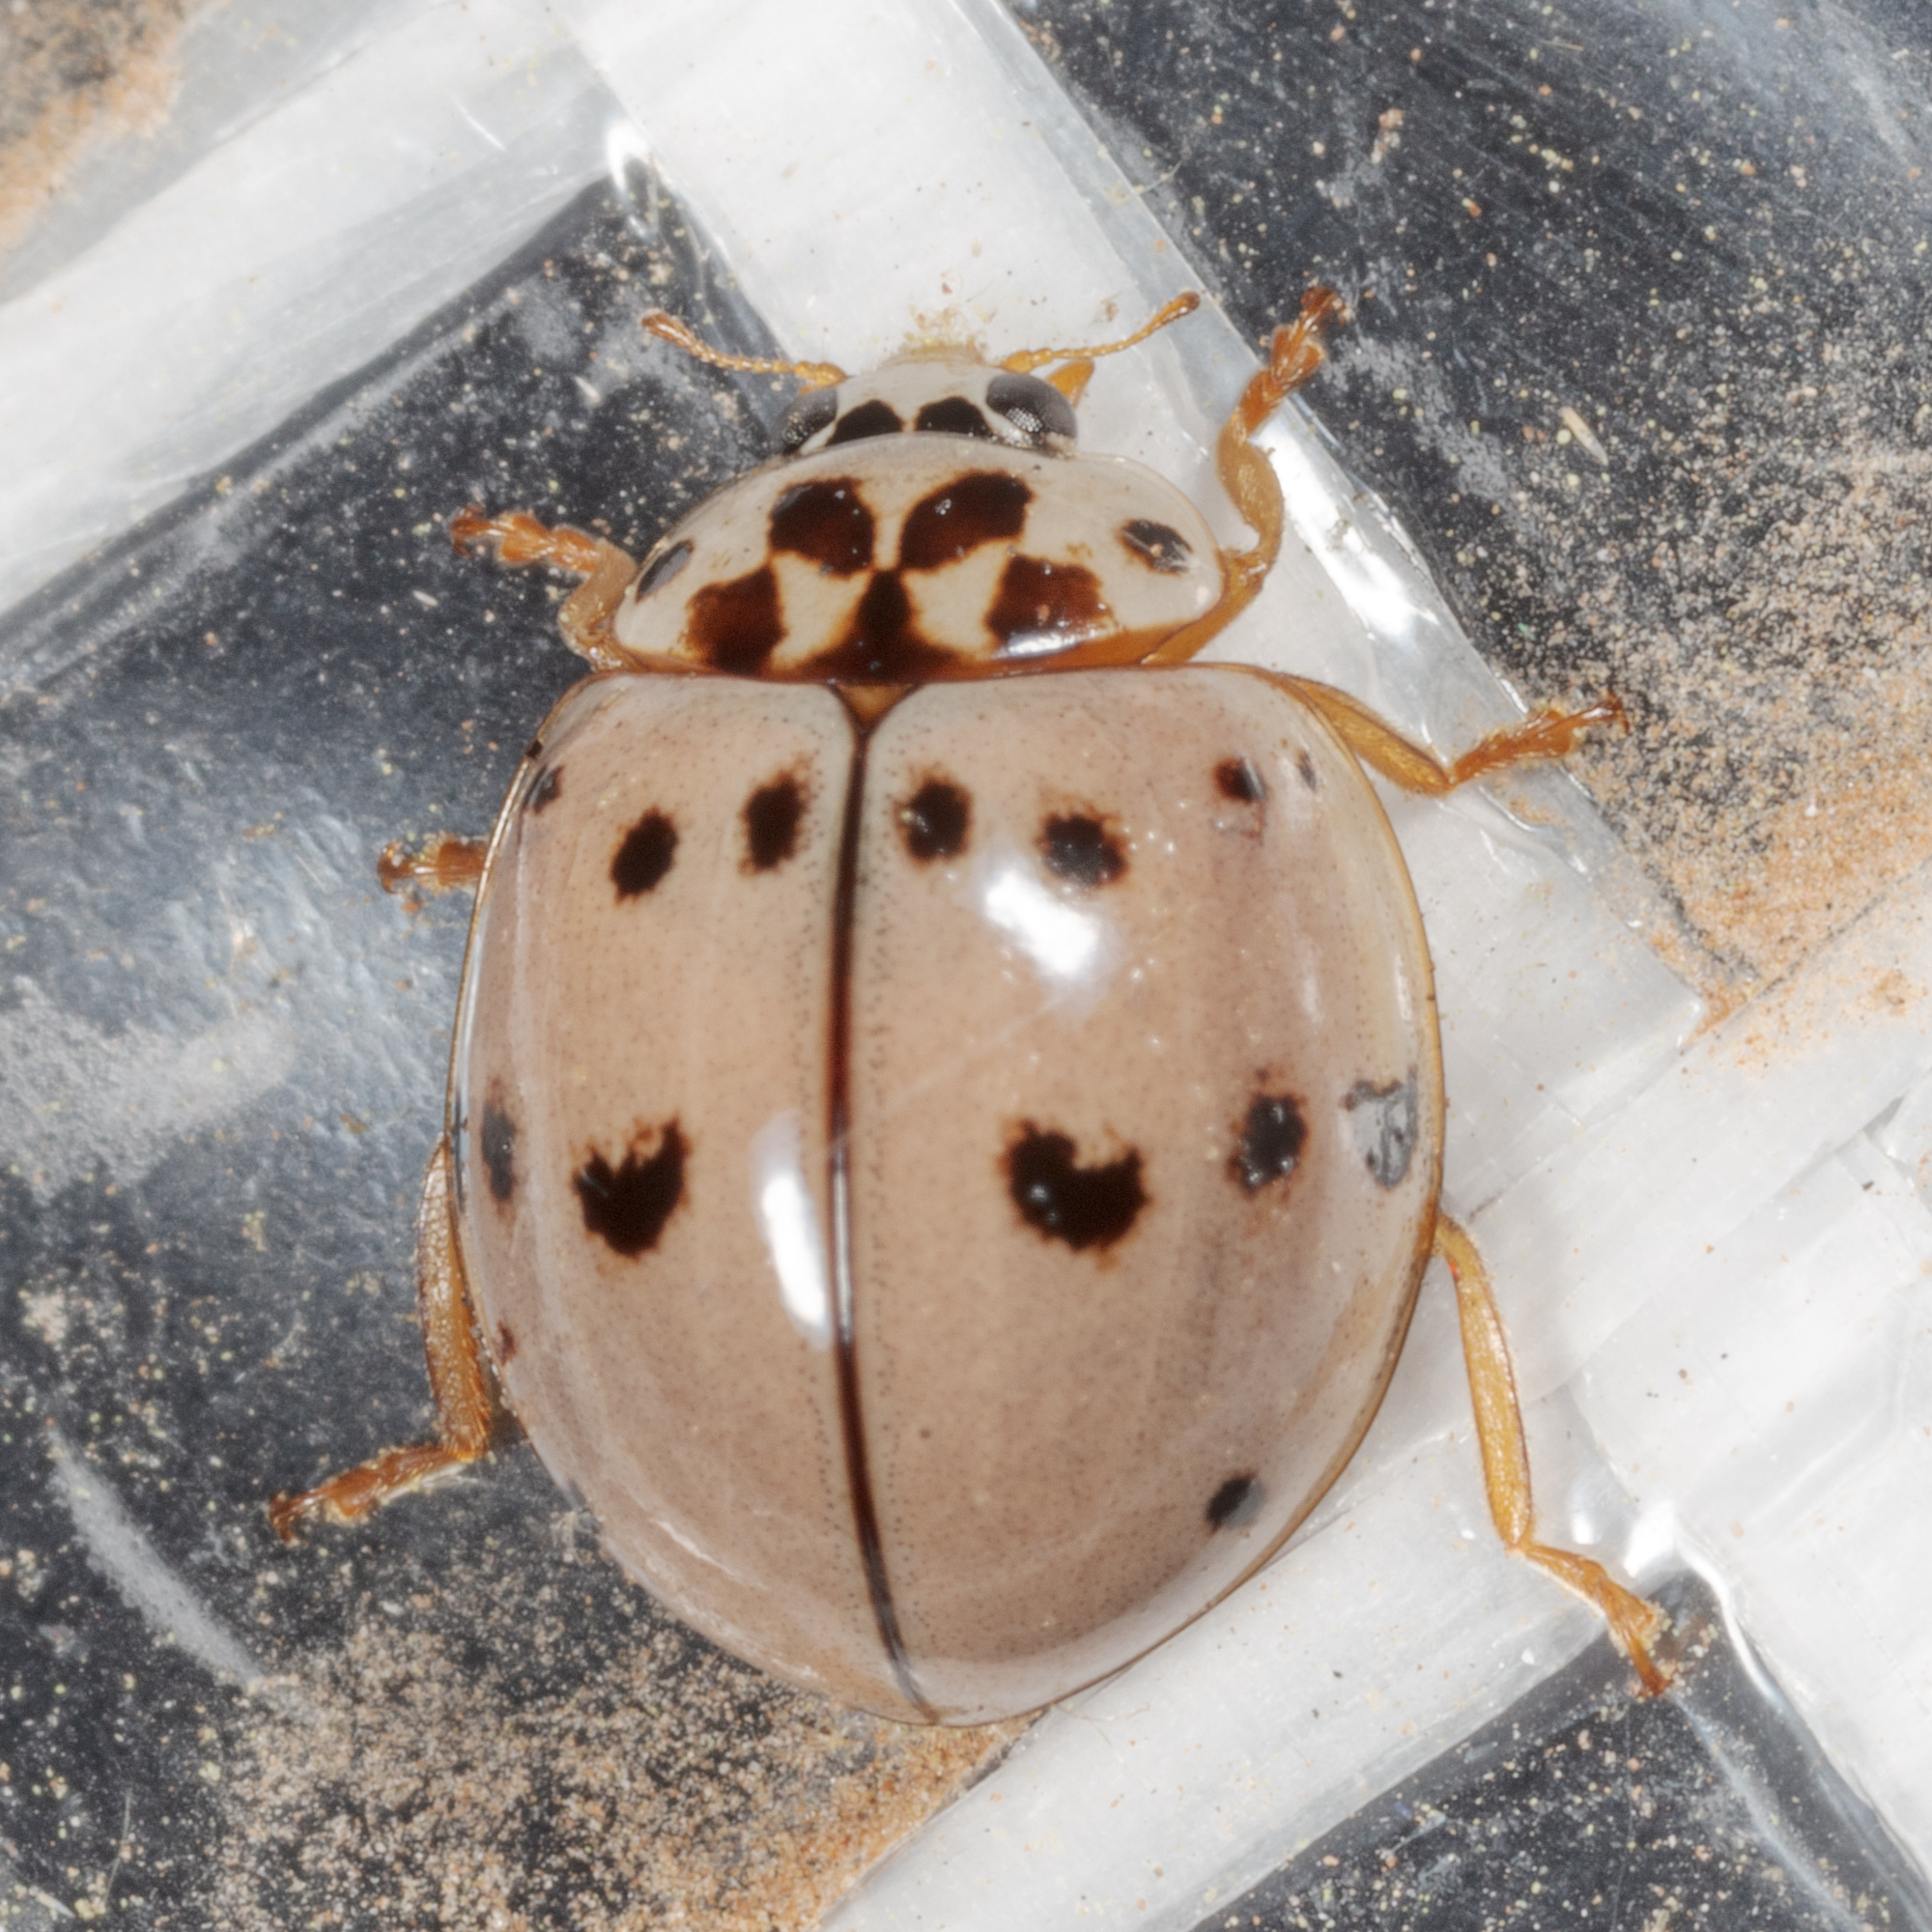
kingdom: Animalia
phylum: Arthropoda
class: Insecta
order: Coleoptera
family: Coccinellidae
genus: Olla
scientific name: Olla v-nigrum
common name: Ashy gray lady beetle
